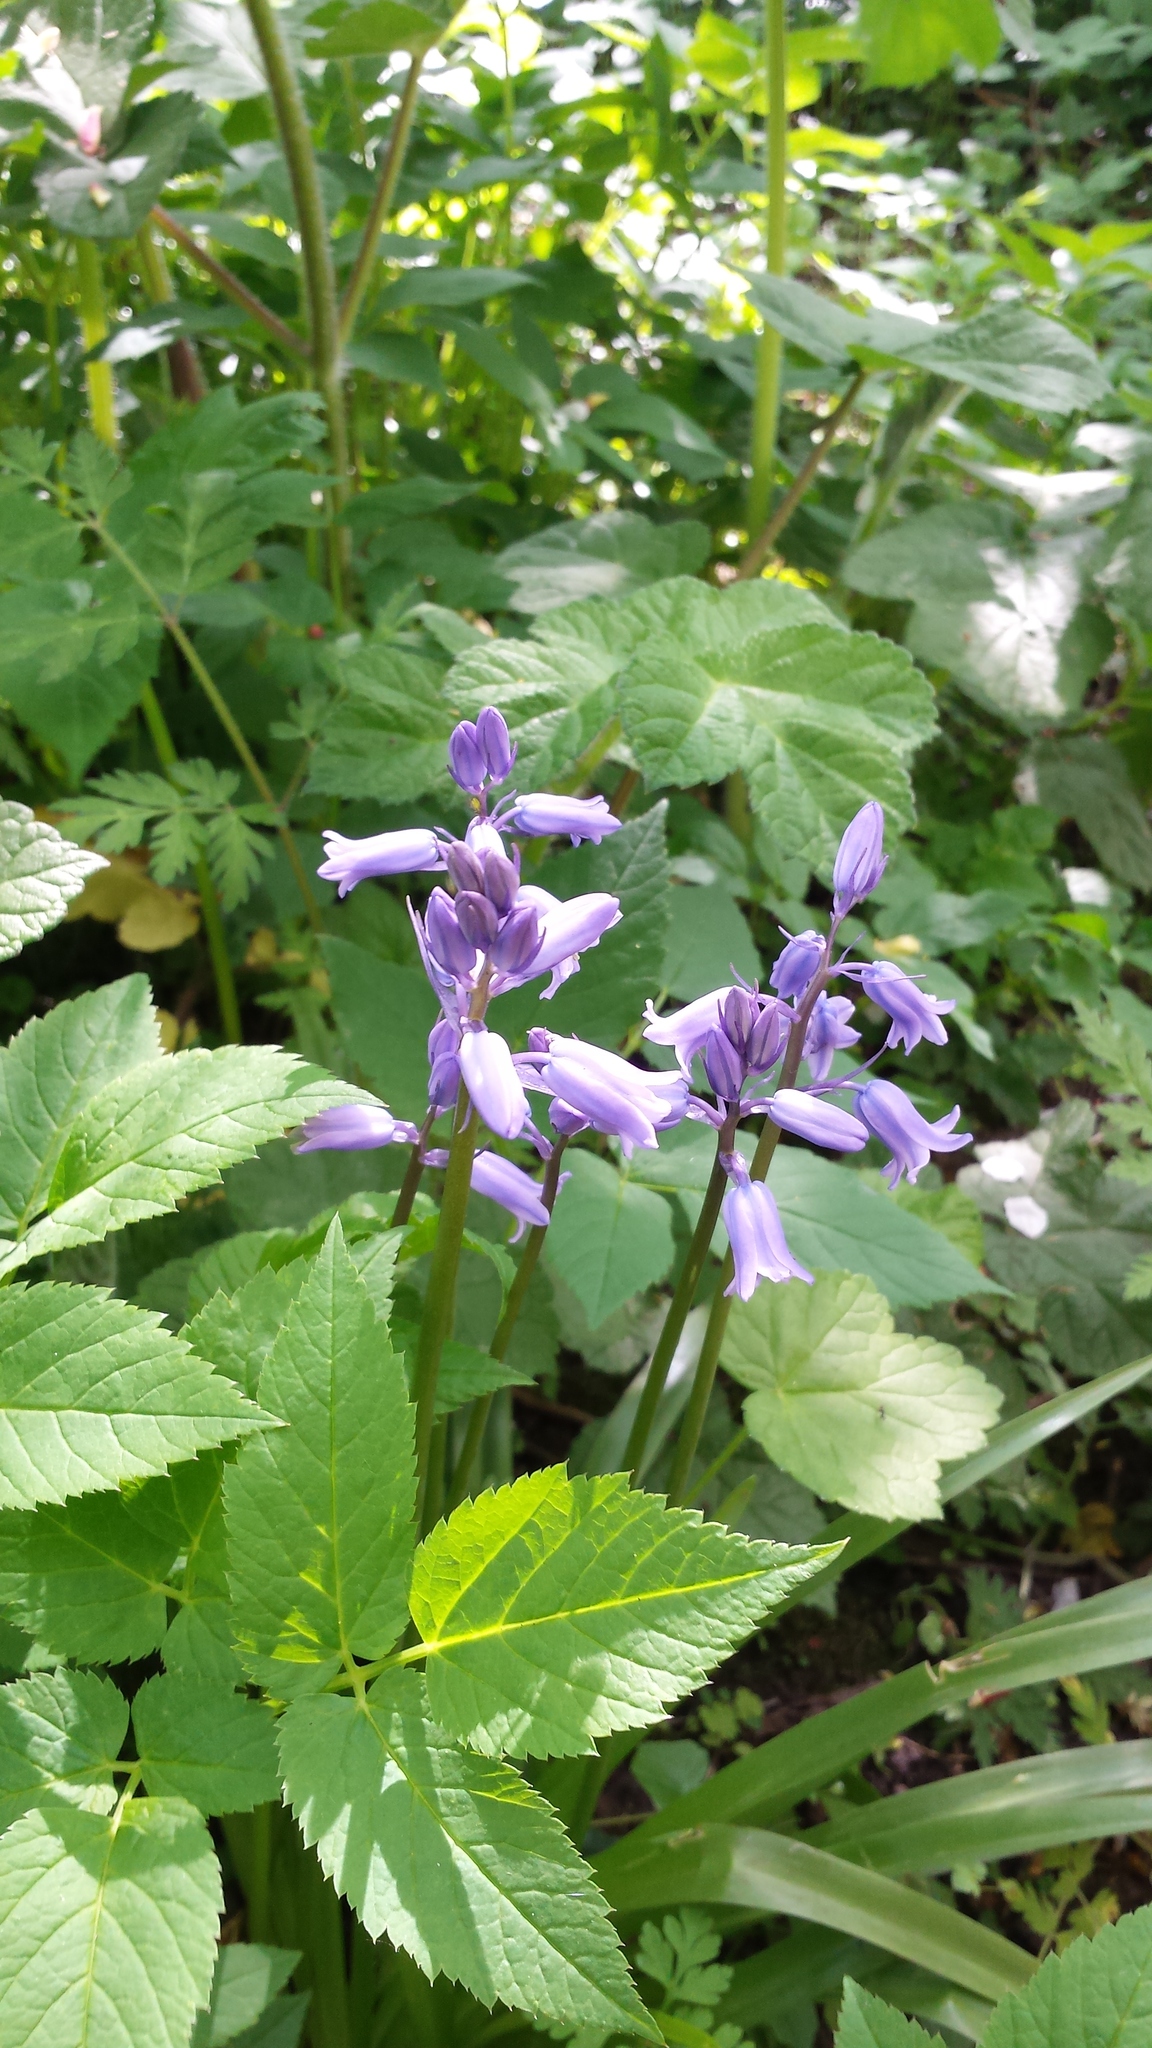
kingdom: Plantae
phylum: Tracheophyta
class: Liliopsida
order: Asparagales
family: Asparagaceae
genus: Hyacinthoides
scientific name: Hyacinthoides hispanica
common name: Spanish bluebell
